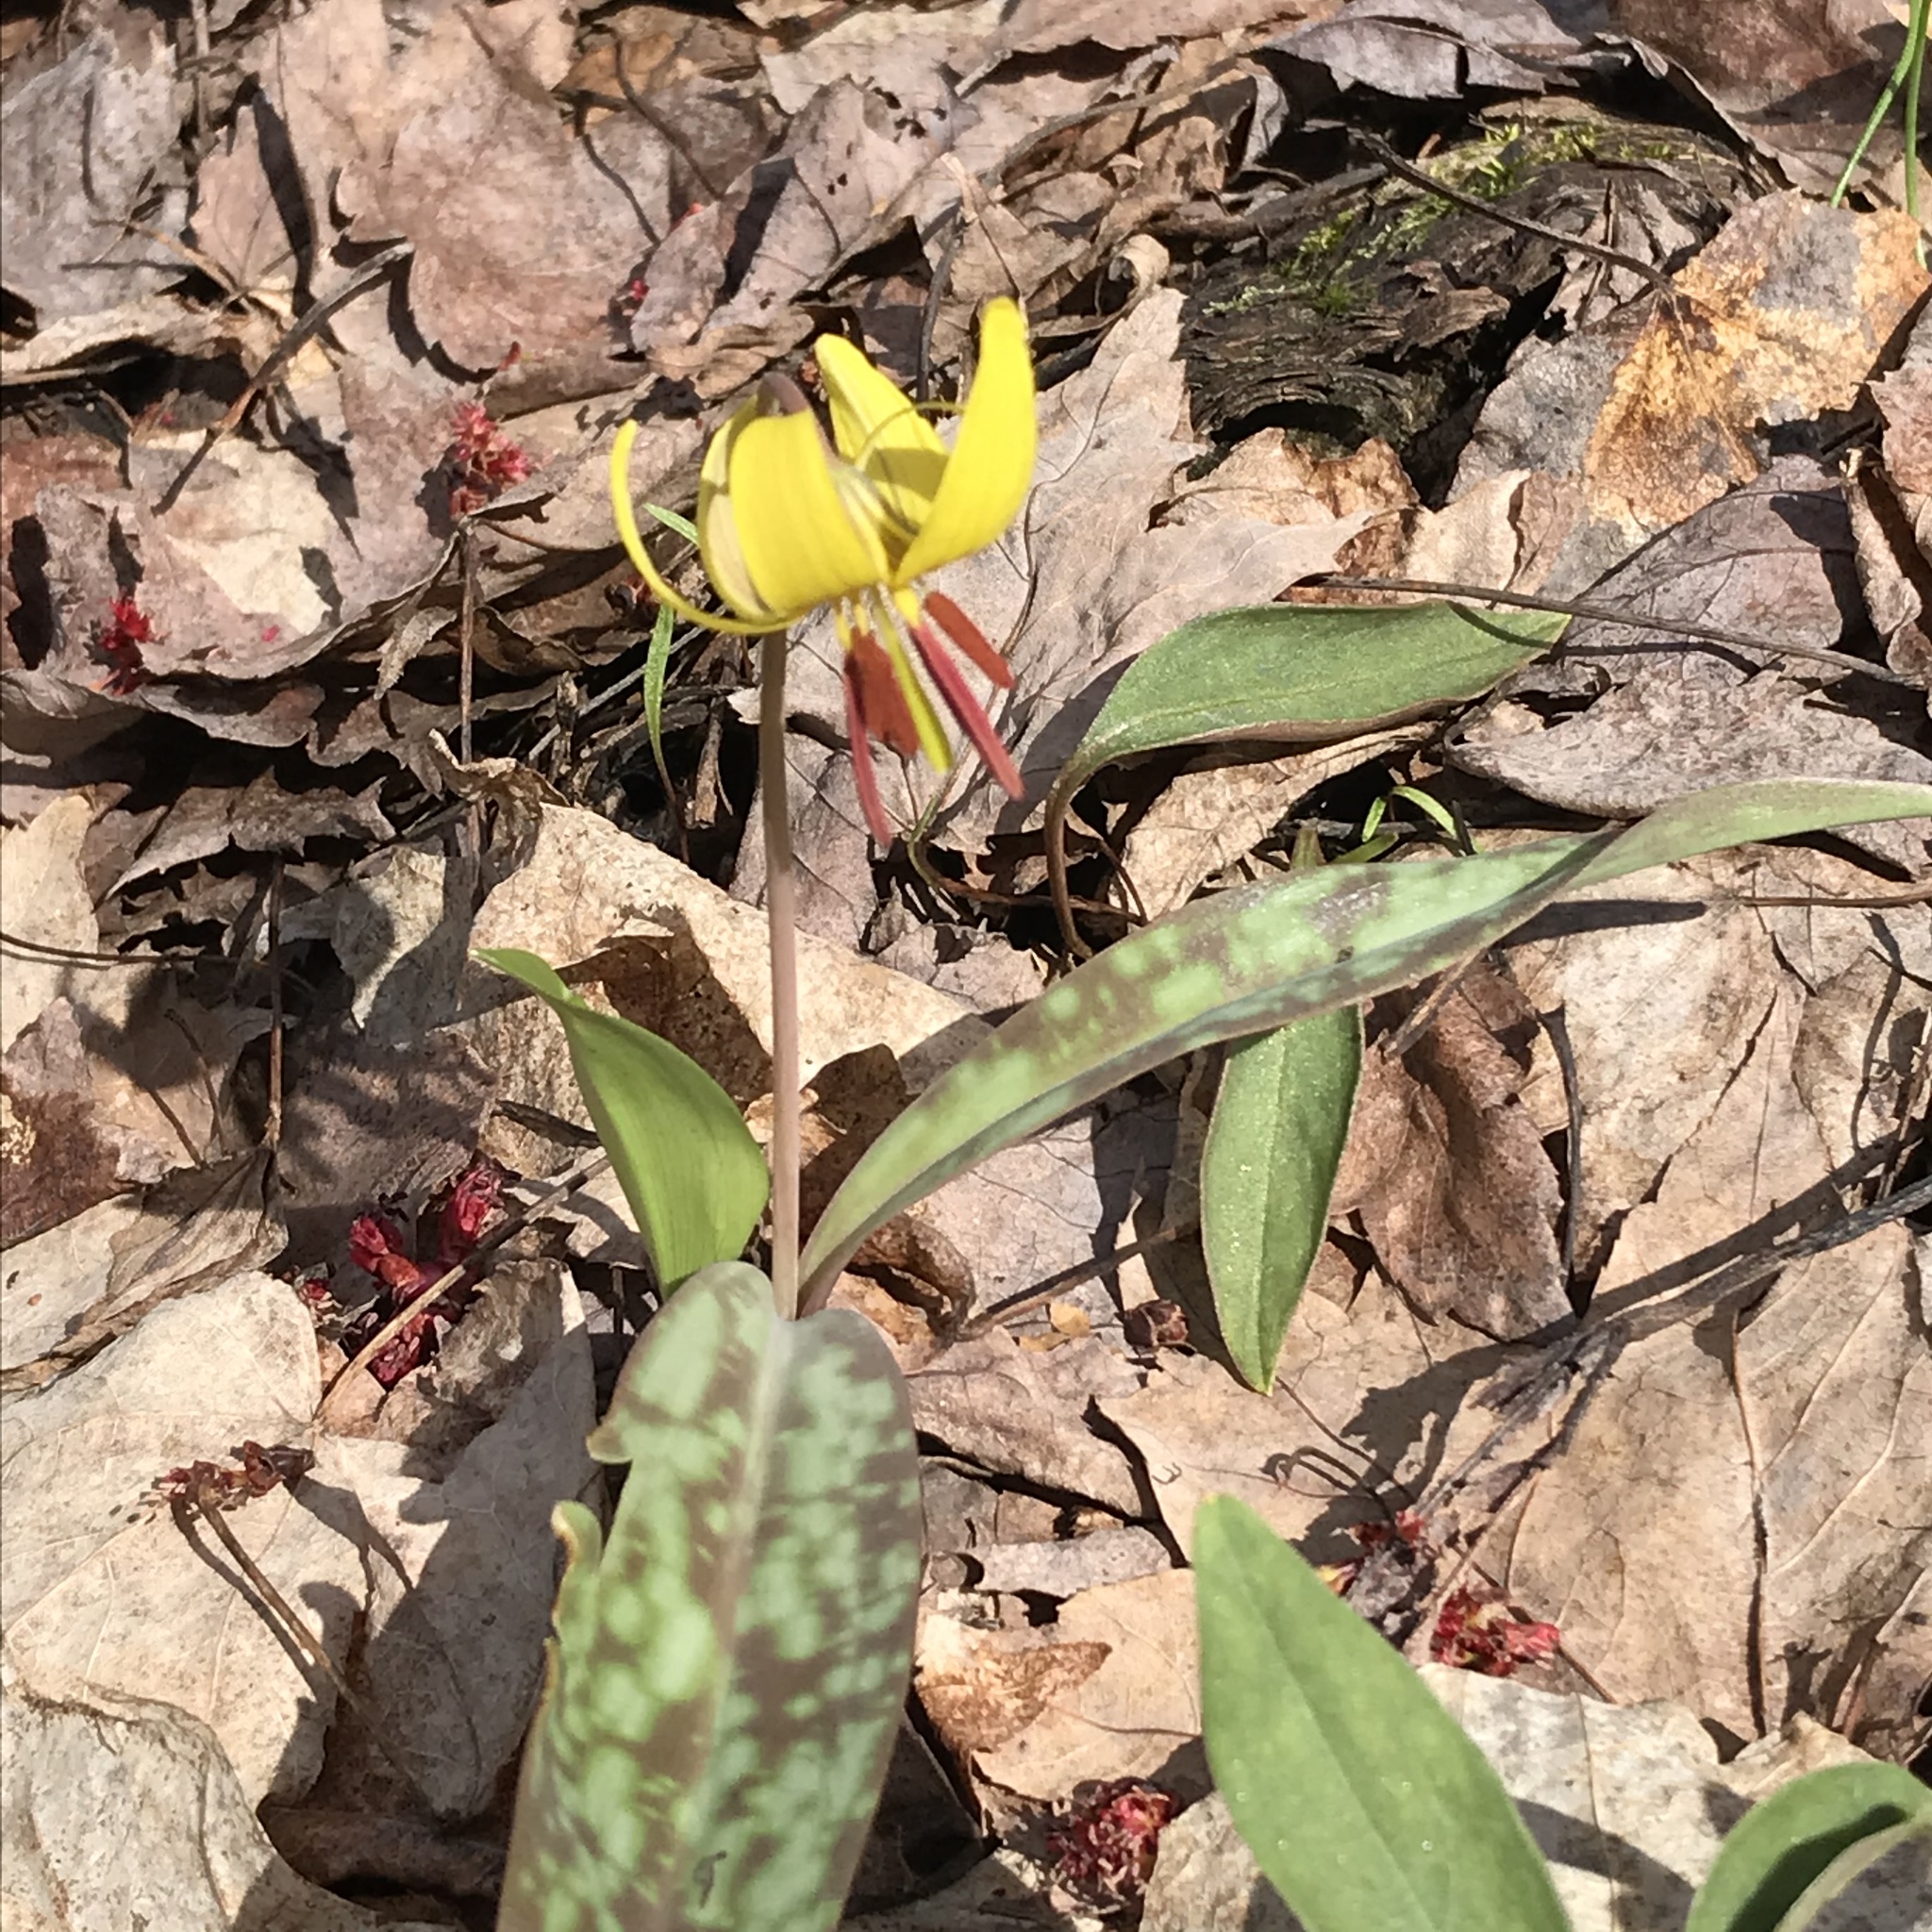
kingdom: Plantae
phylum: Tracheophyta
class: Liliopsida
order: Liliales
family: Liliaceae
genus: Erythronium
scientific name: Erythronium americanum
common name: Yellow adder's-tongue
